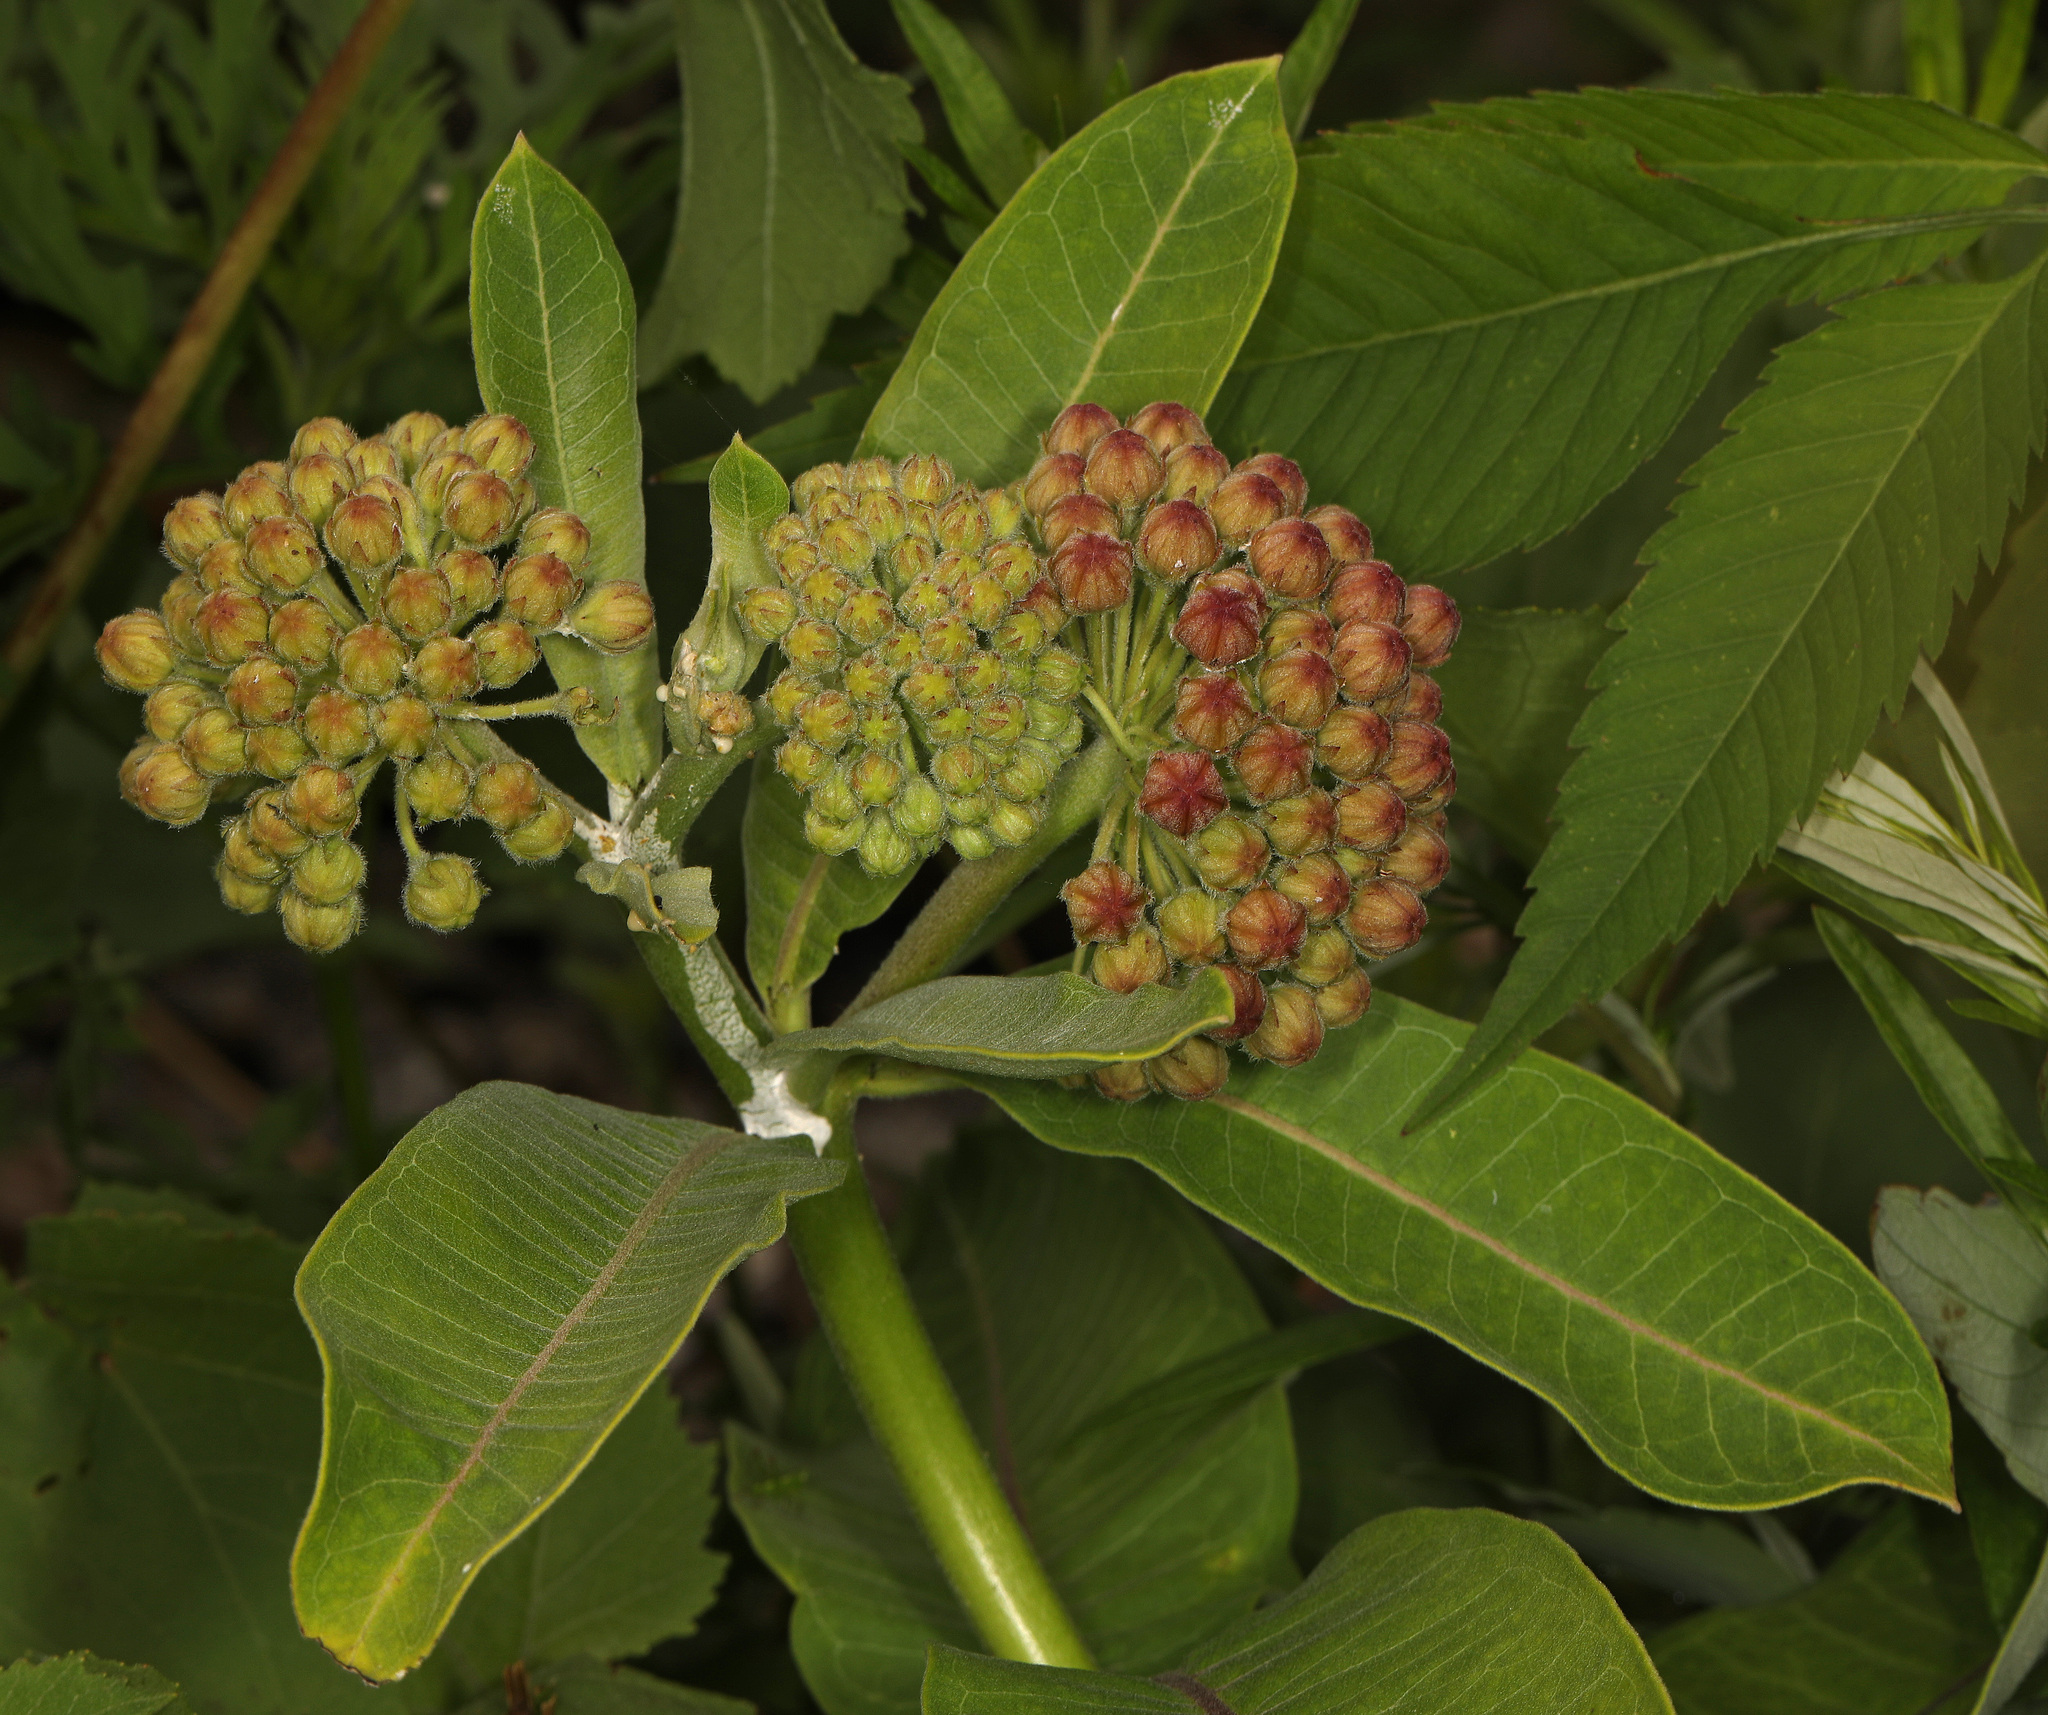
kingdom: Plantae
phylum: Tracheophyta
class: Magnoliopsida
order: Gentianales
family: Apocynaceae
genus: Asclepias
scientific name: Asclepias syriaca
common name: Common milkweed
